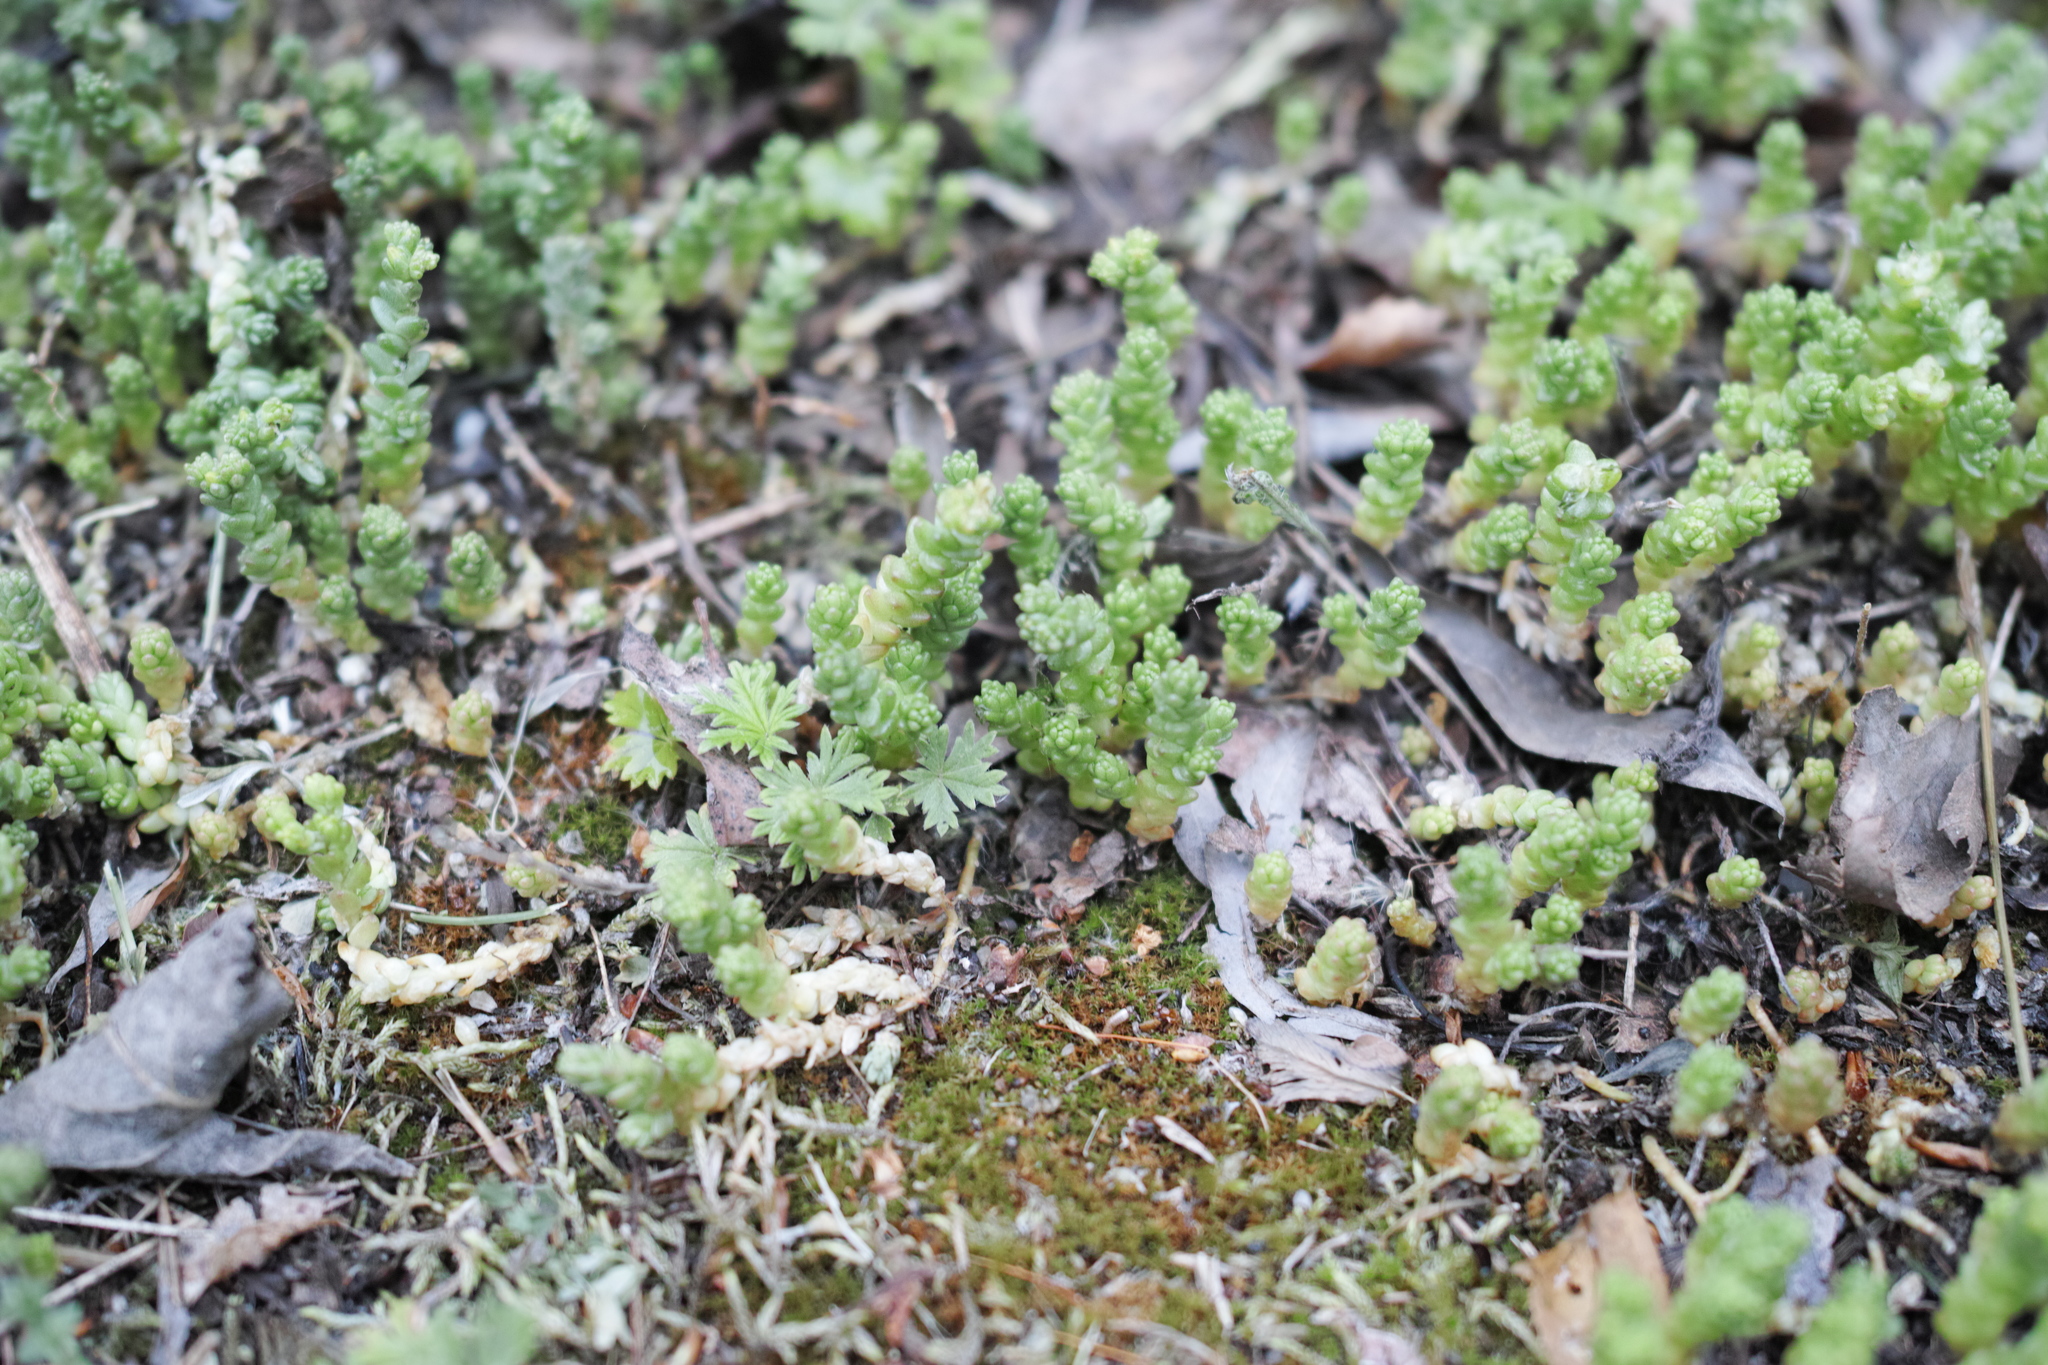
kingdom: Plantae
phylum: Tracheophyta
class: Magnoliopsida
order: Saxifragales
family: Crassulaceae
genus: Sedum
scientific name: Sedum acre
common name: Biting stonecrop
